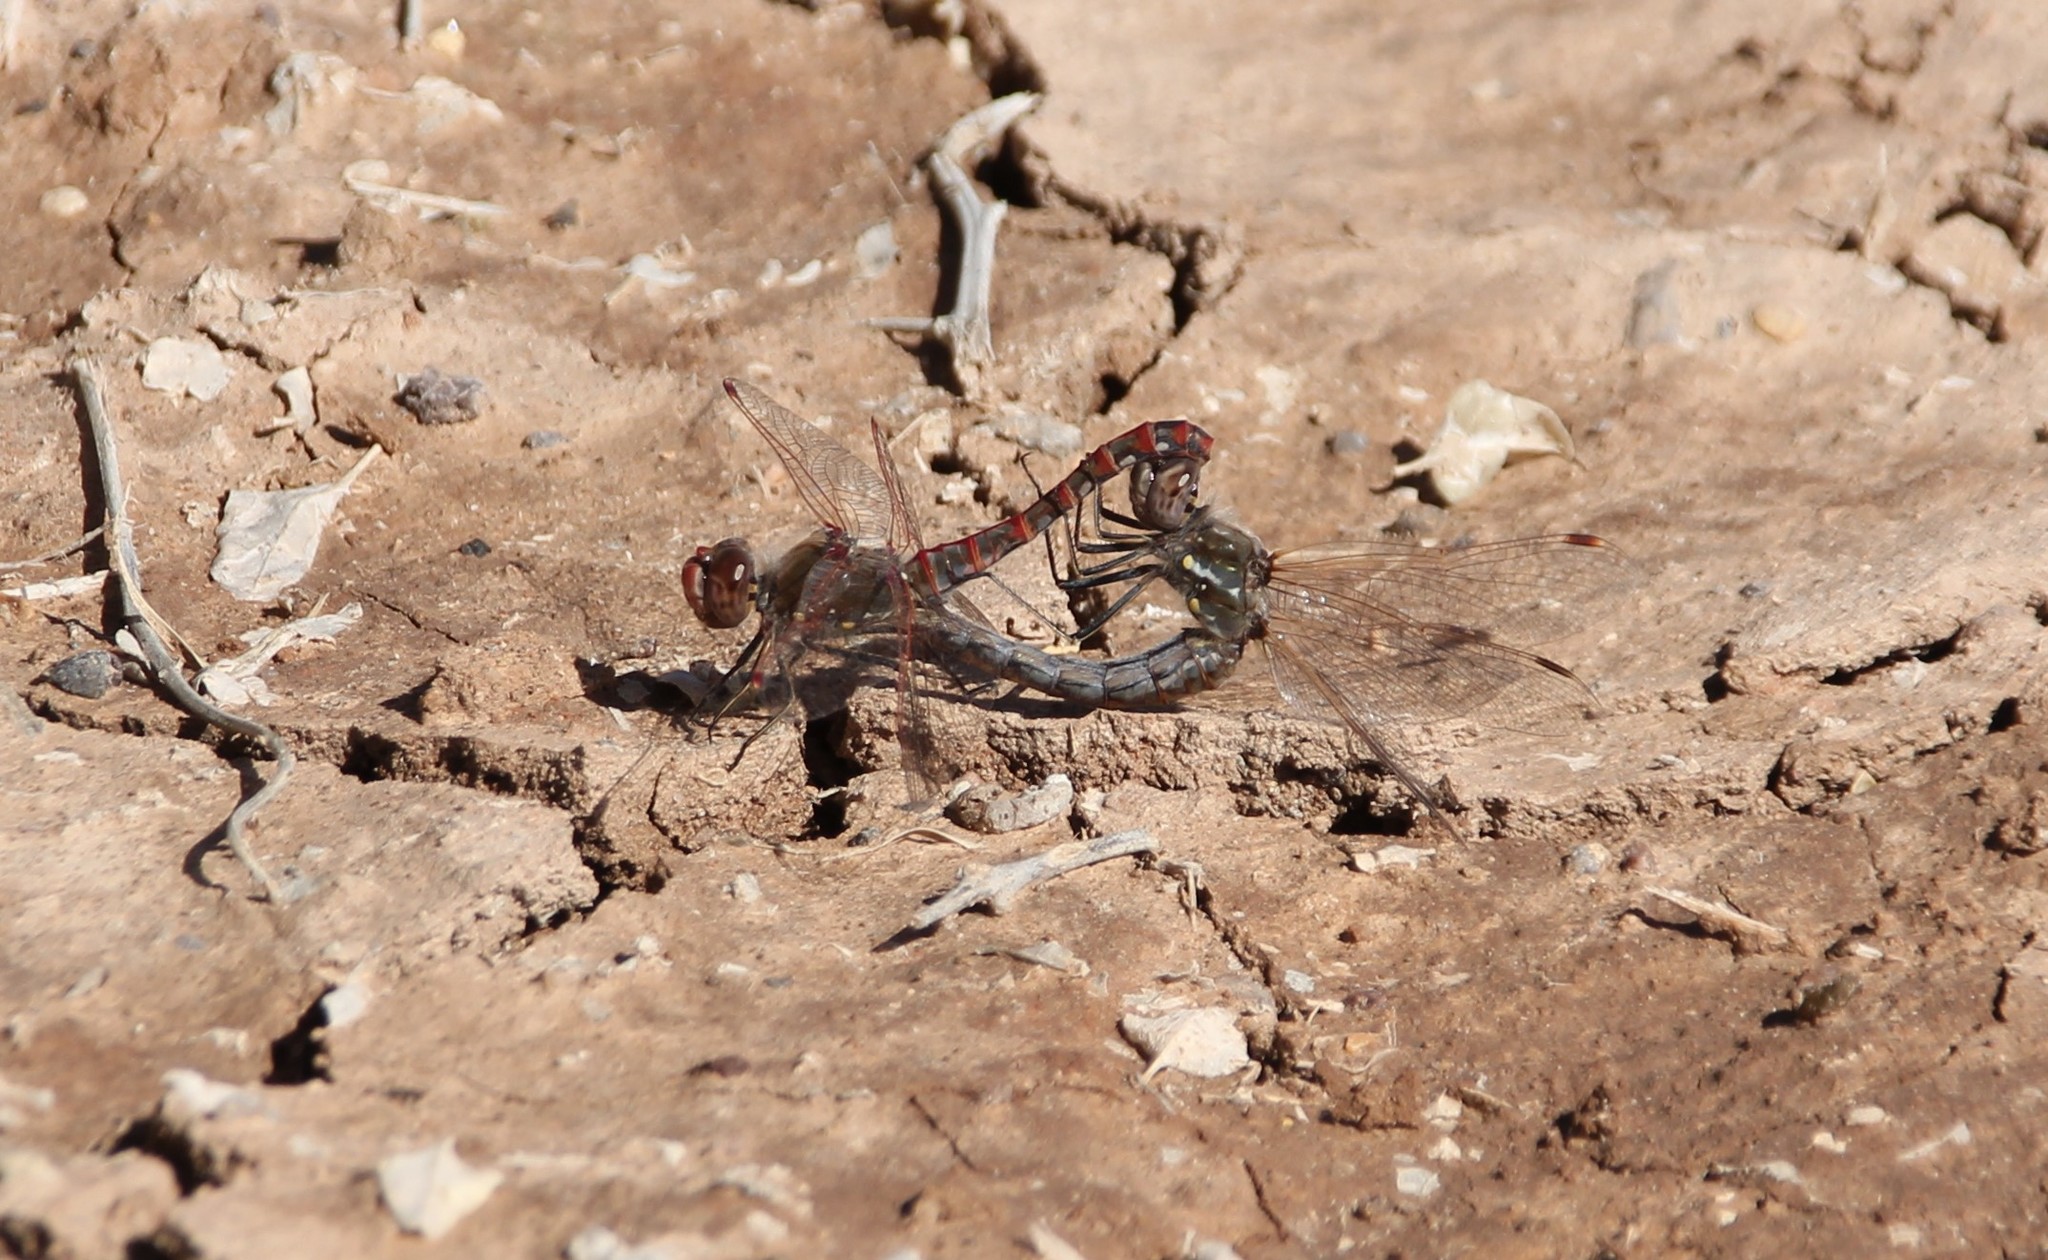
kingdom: Animalia
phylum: Arthropoda
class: Insecta
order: Odonata
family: Libellulidae
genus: Sympetrum
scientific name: Sympetrum corruptum
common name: Variegated meadowhawk
